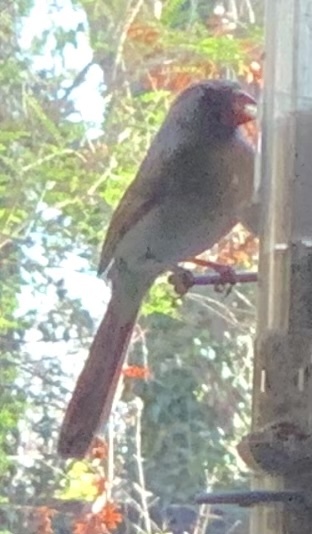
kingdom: Animalia
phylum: Chordata
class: Aves
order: Passeriformes
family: Cardinalidae
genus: Cardinalis
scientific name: Cardinalis cardinalis
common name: Northern cardinal
